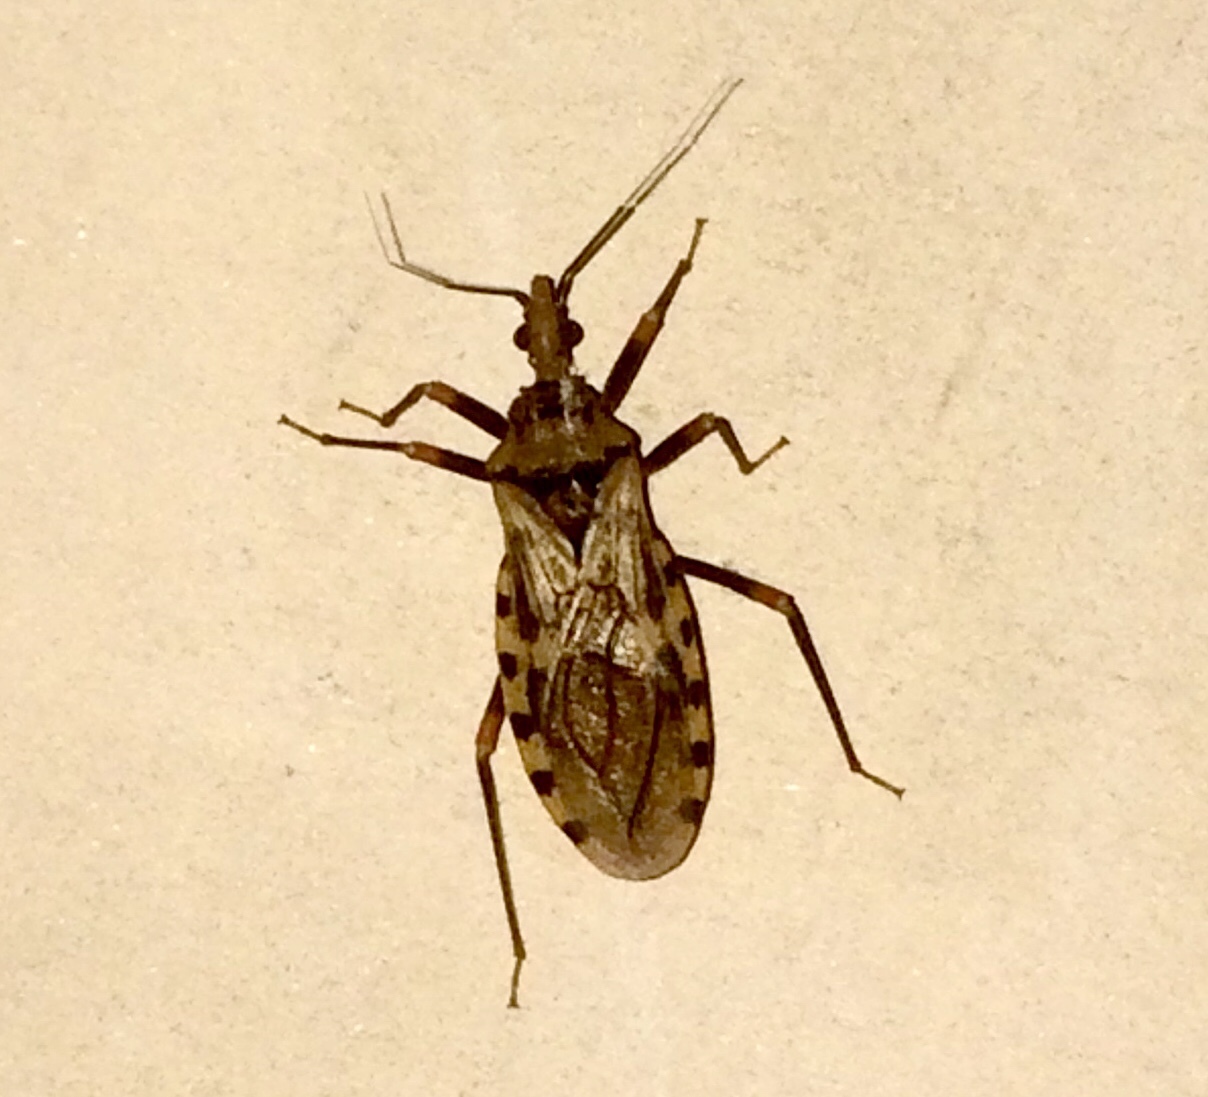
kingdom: Animalia
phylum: Arthropoda
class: Insecta
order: Hemiptera
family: Reduviidae
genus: Panstrongylus
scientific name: Panstrongylus geniculatus
